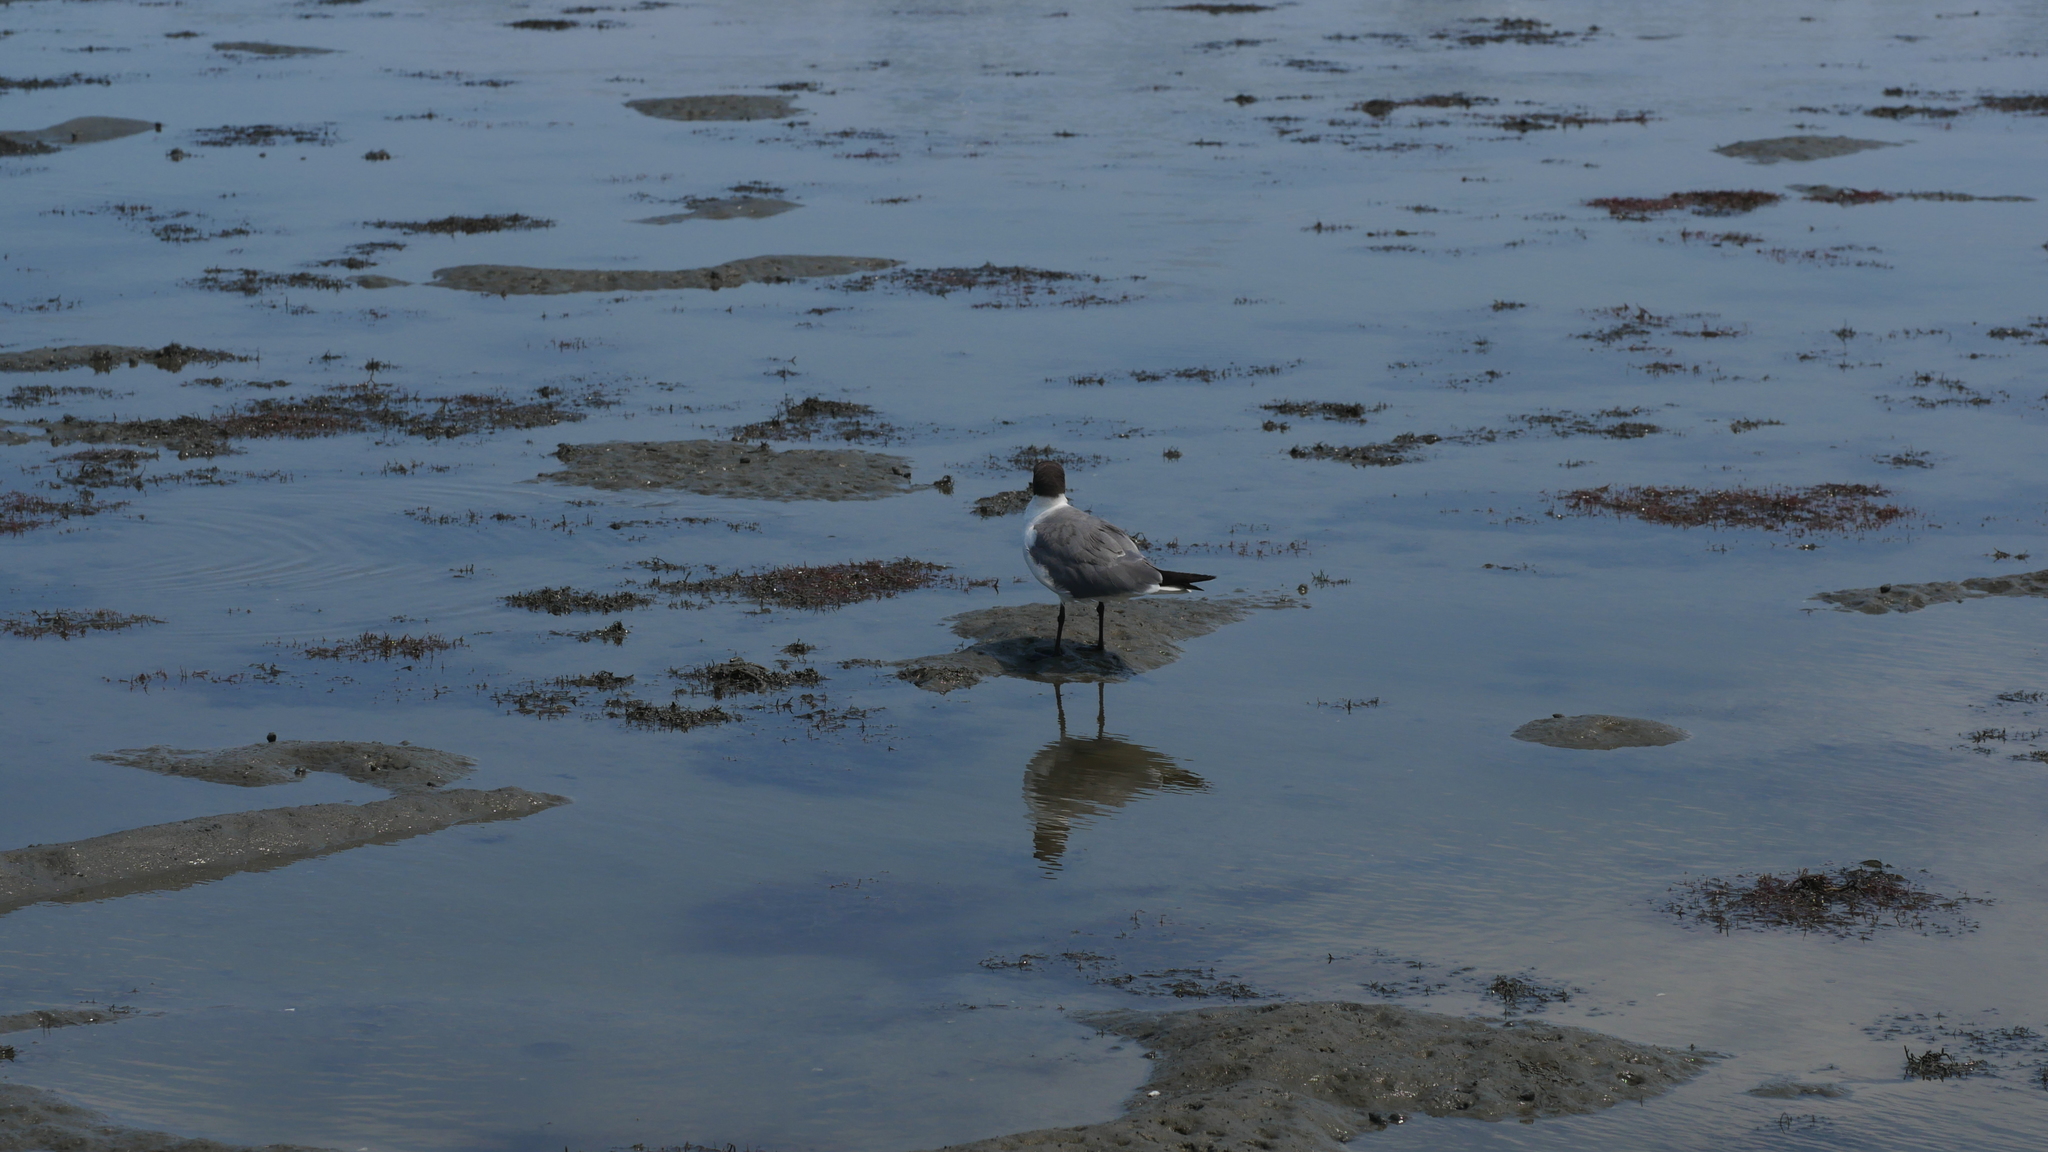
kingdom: Animalia
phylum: Chordata
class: Aves
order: Charadriiformes
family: Laridae
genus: Leucophaeus
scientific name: Leucophaeus atricilla
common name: Laughing gull
